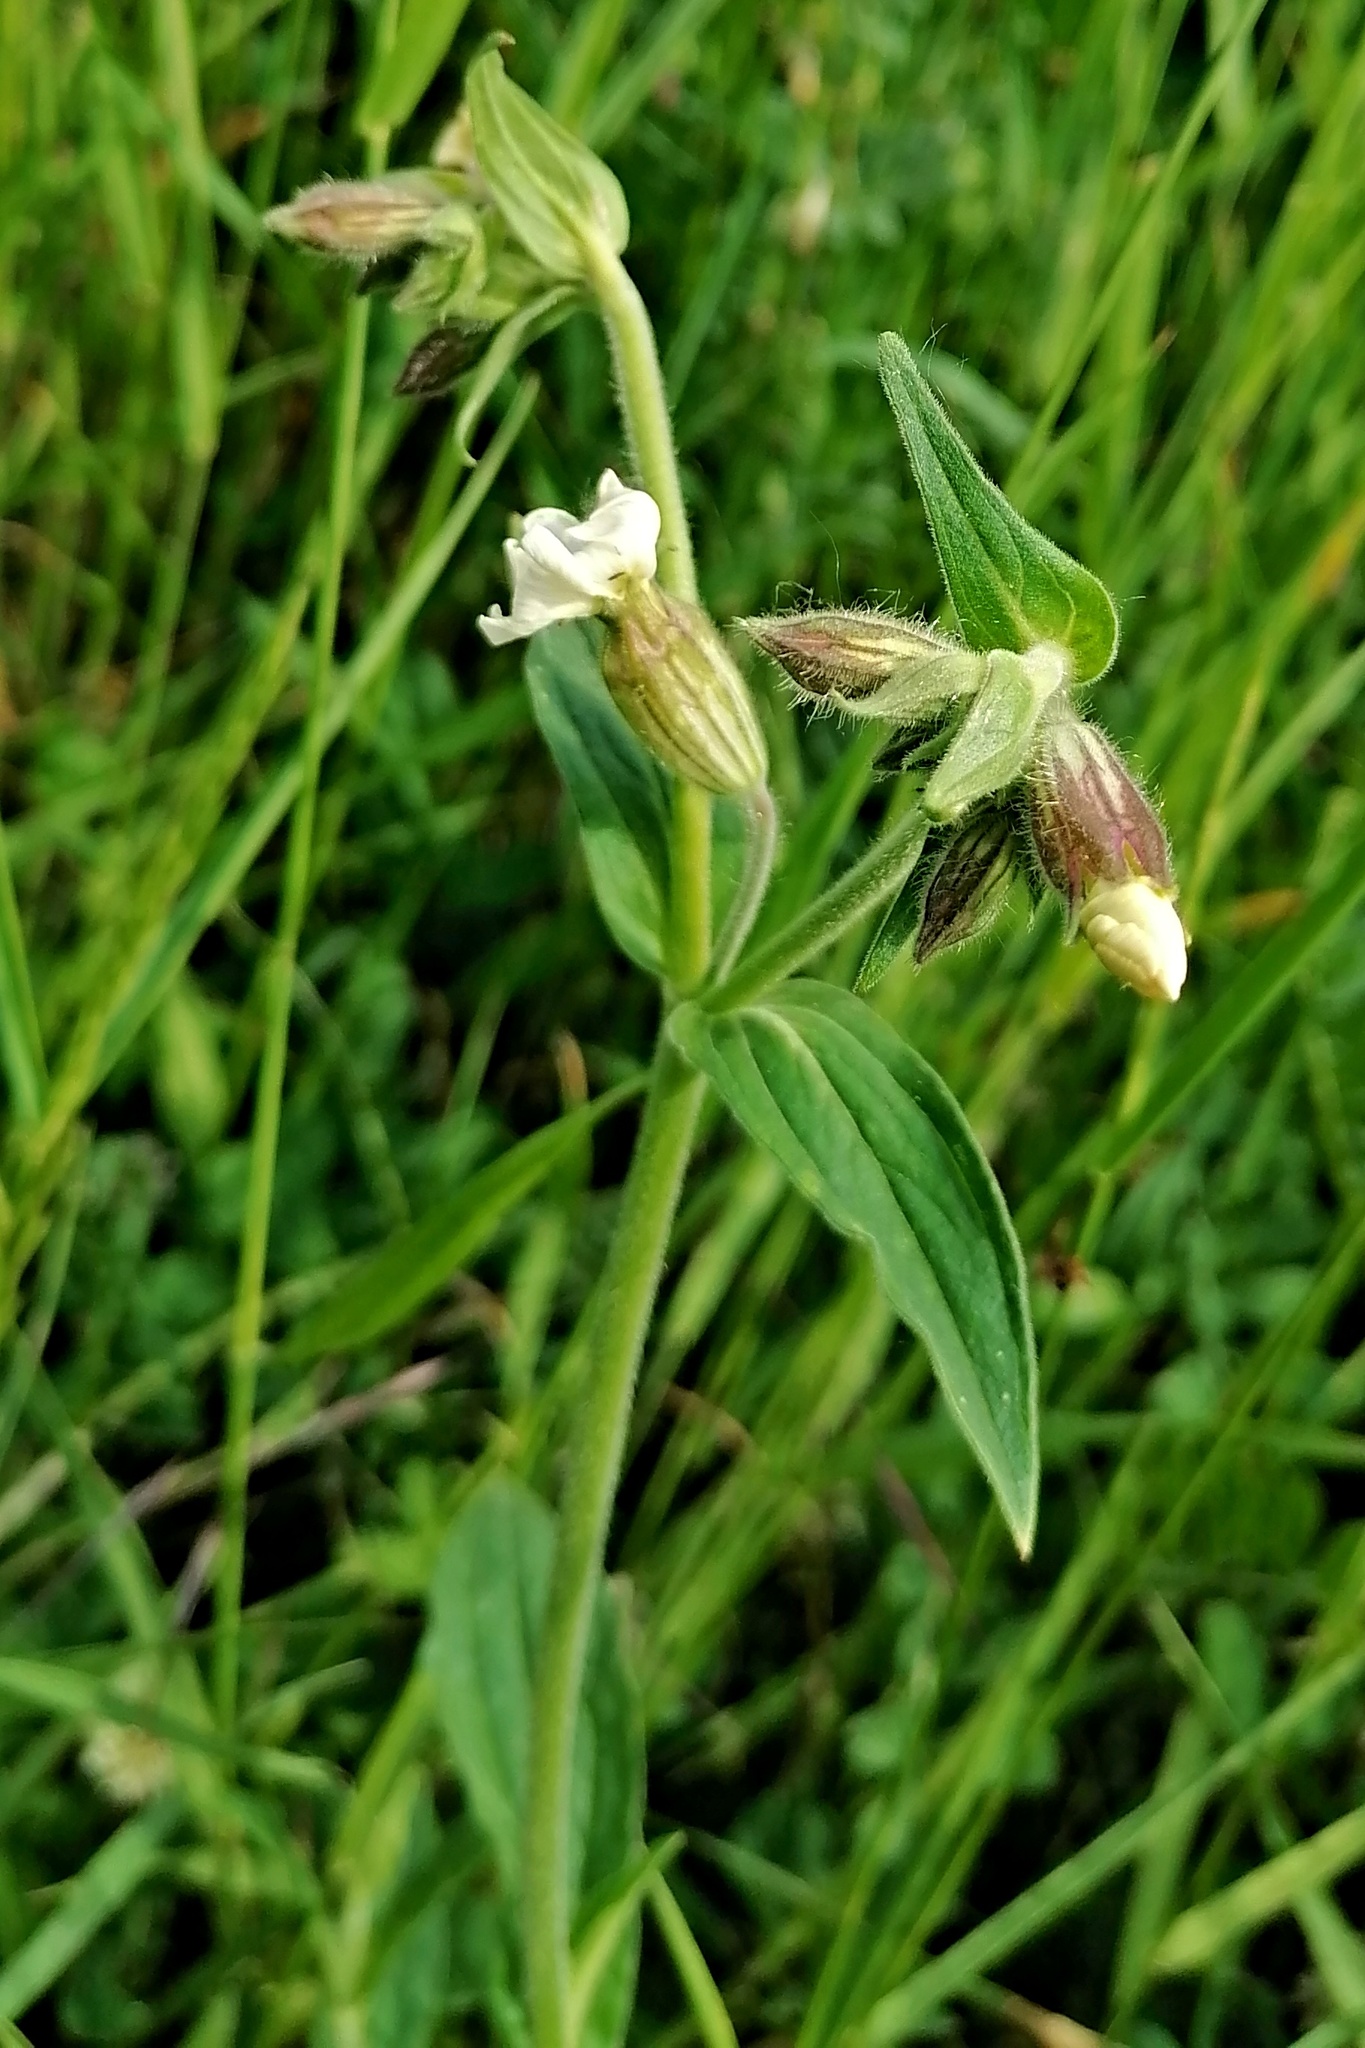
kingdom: Plantae
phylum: Tracheophyta
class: Magnoliopsida
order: Caryophyllales
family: Caryophyllaceae
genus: Silene
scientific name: Silene latifolia
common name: White campion
